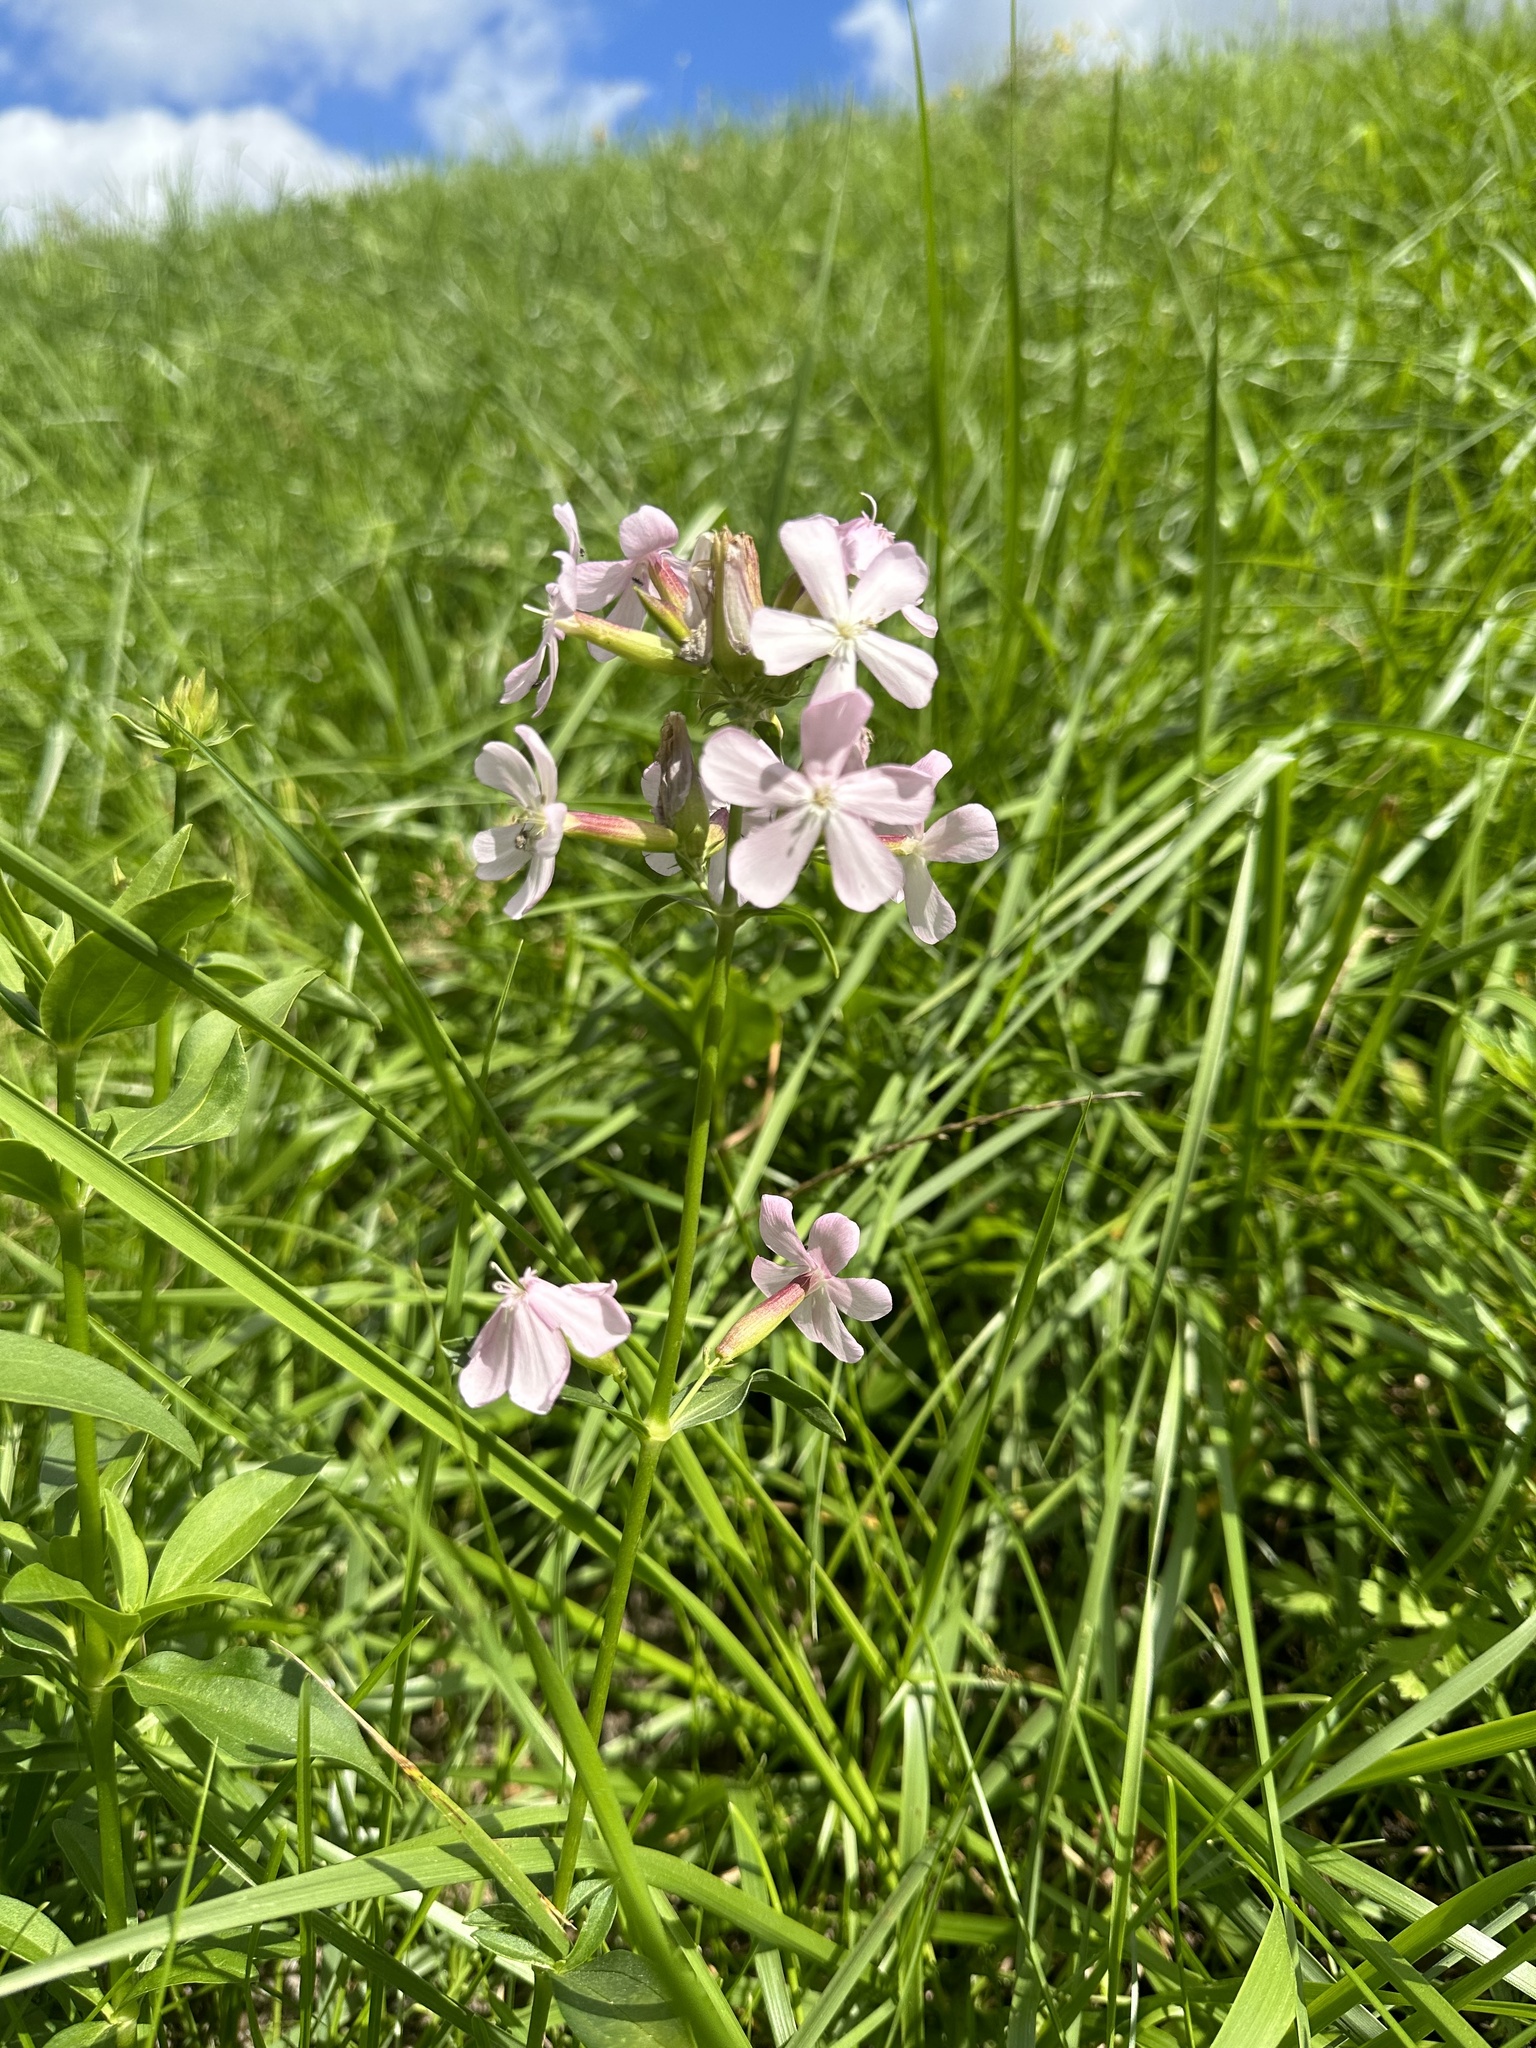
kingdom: Plantae
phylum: Tracheophyta
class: Magnoliopsida
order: Caryophyllales
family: Caryophyllaceae
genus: Saponaria
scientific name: Saponaria officinalis
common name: Soapwort
